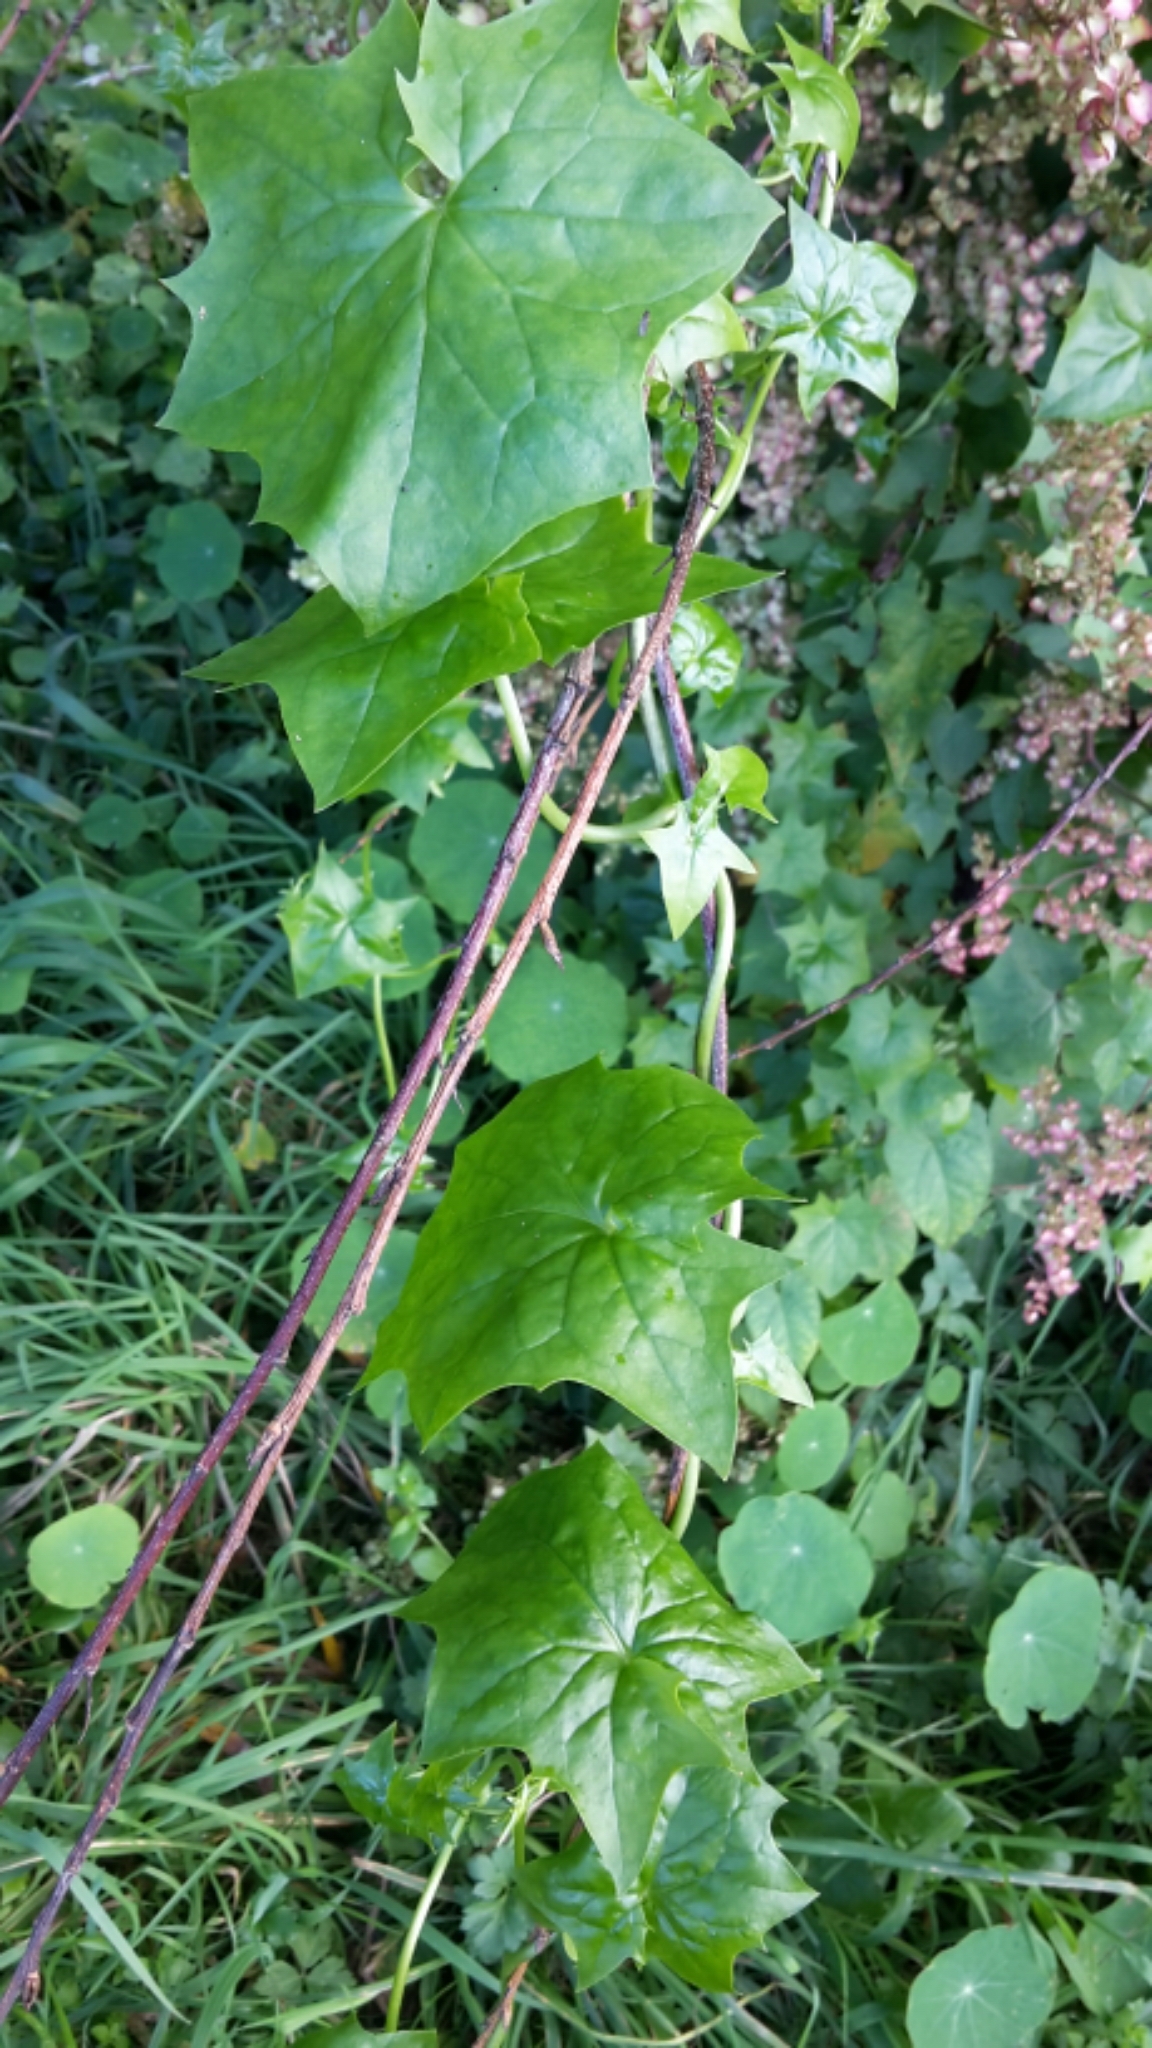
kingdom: Plantae
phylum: Tracheophyta
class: Magnoliopsida
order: Asterales
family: Asteraceae
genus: Delairea
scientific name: Delairea odorata
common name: Cape-ivy
